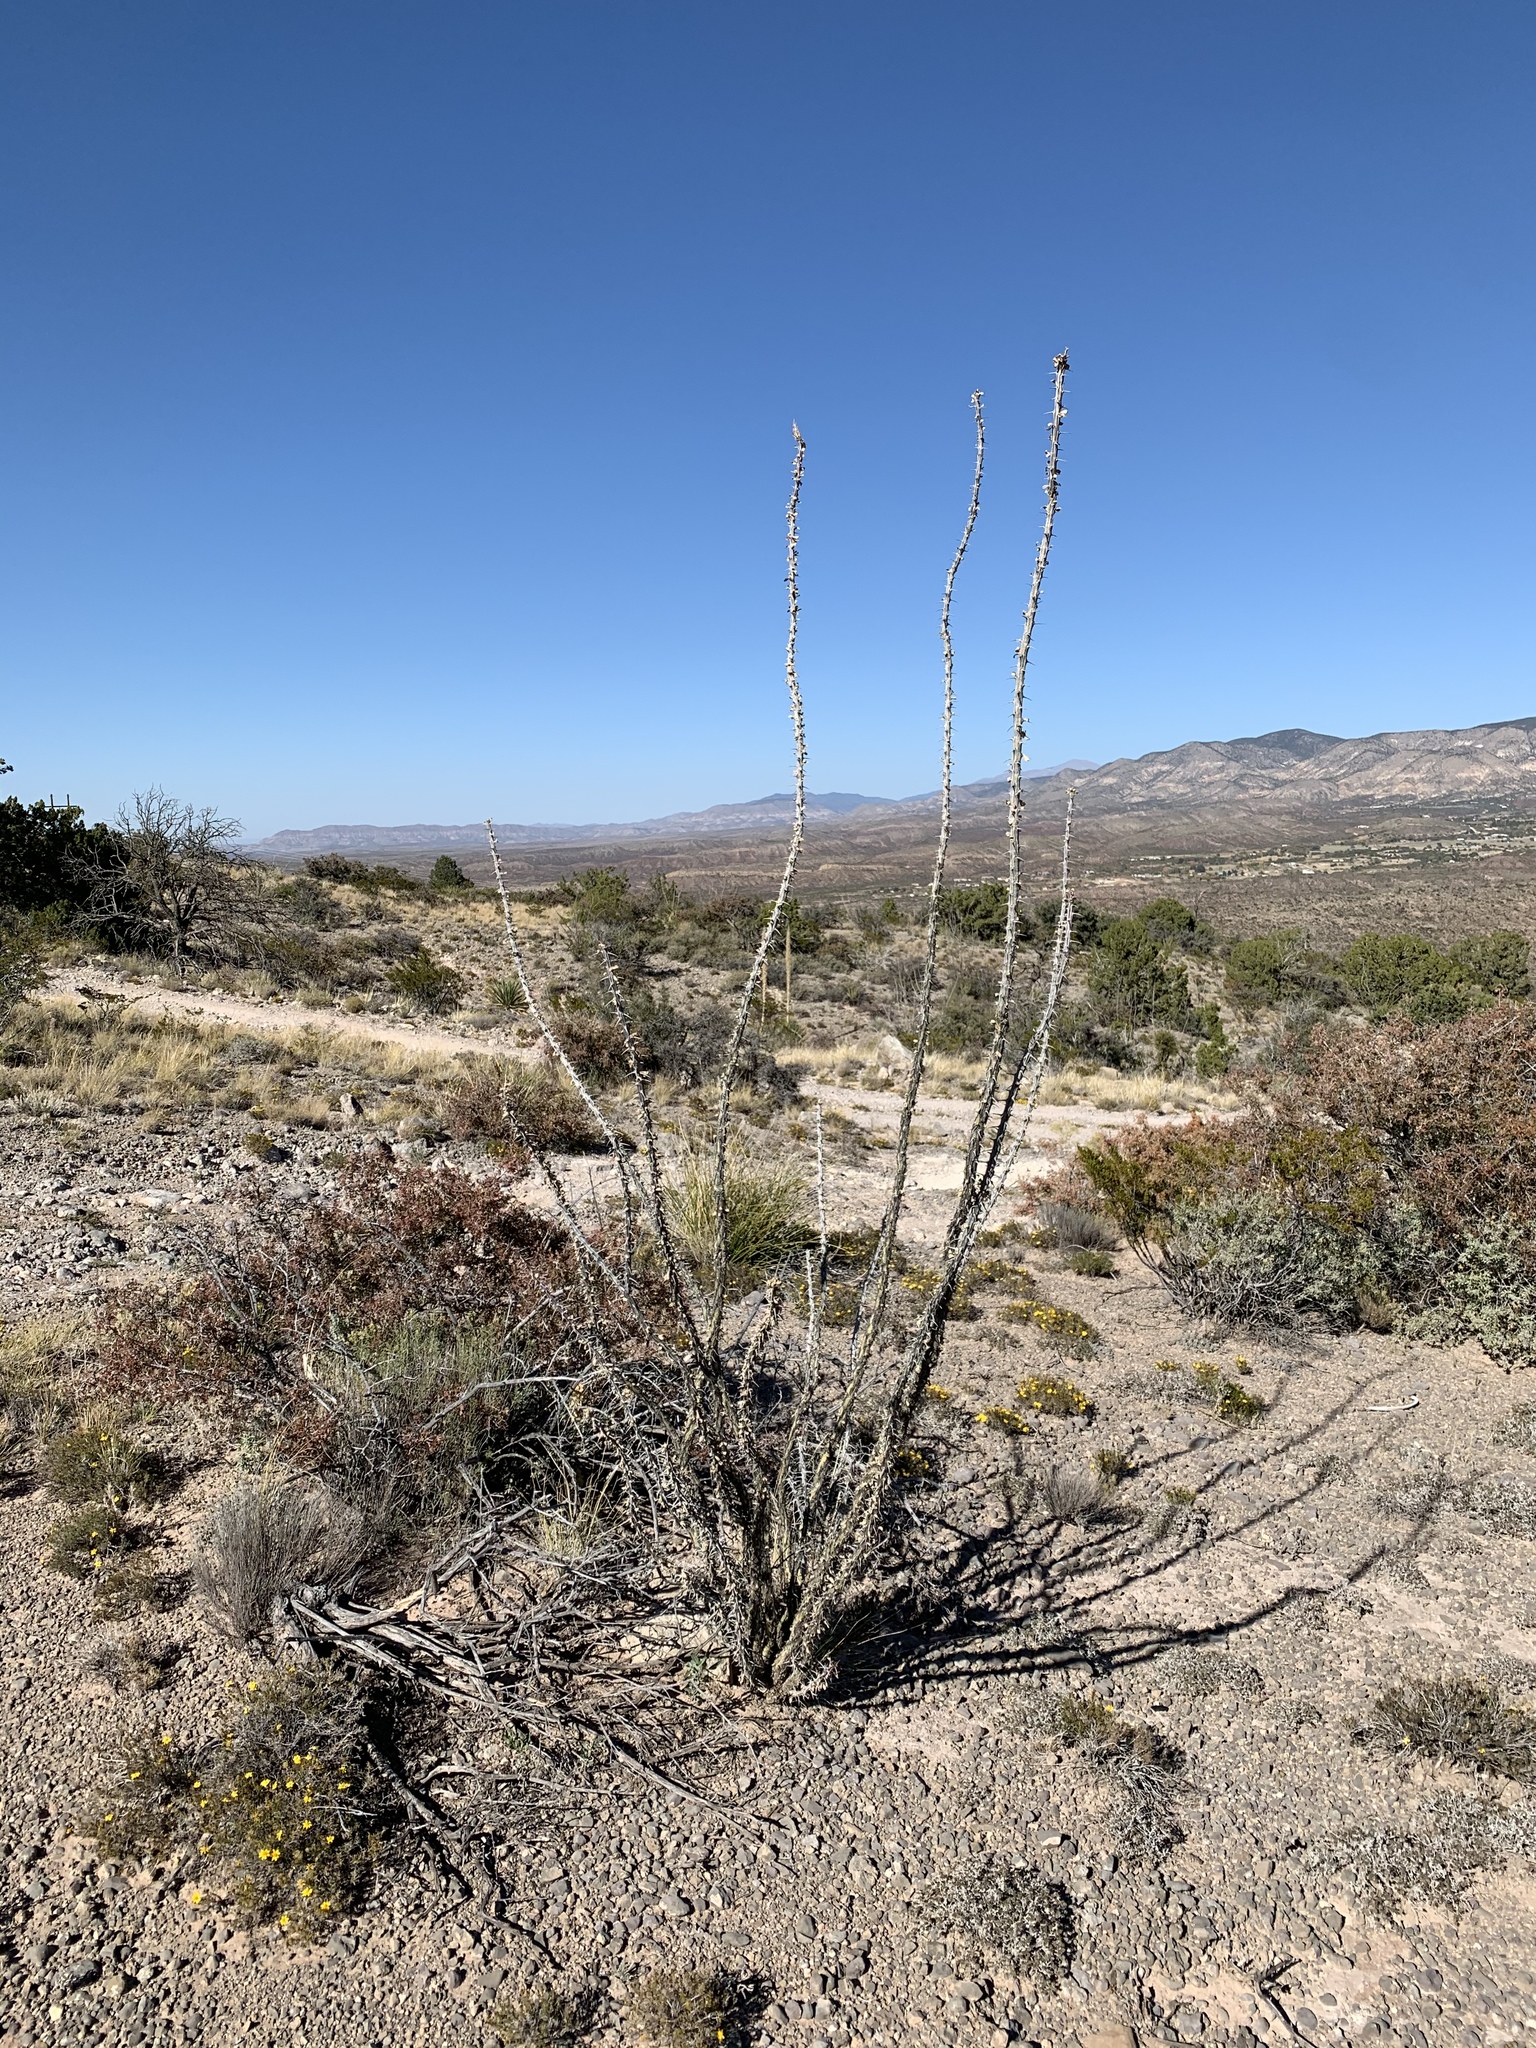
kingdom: Plantae
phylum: Tracheophyta
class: Magnoliopsida
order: Ericales
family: Fouquieriaceae
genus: Fouquieria
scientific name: Fouquieria splendens
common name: Vine-cactus
